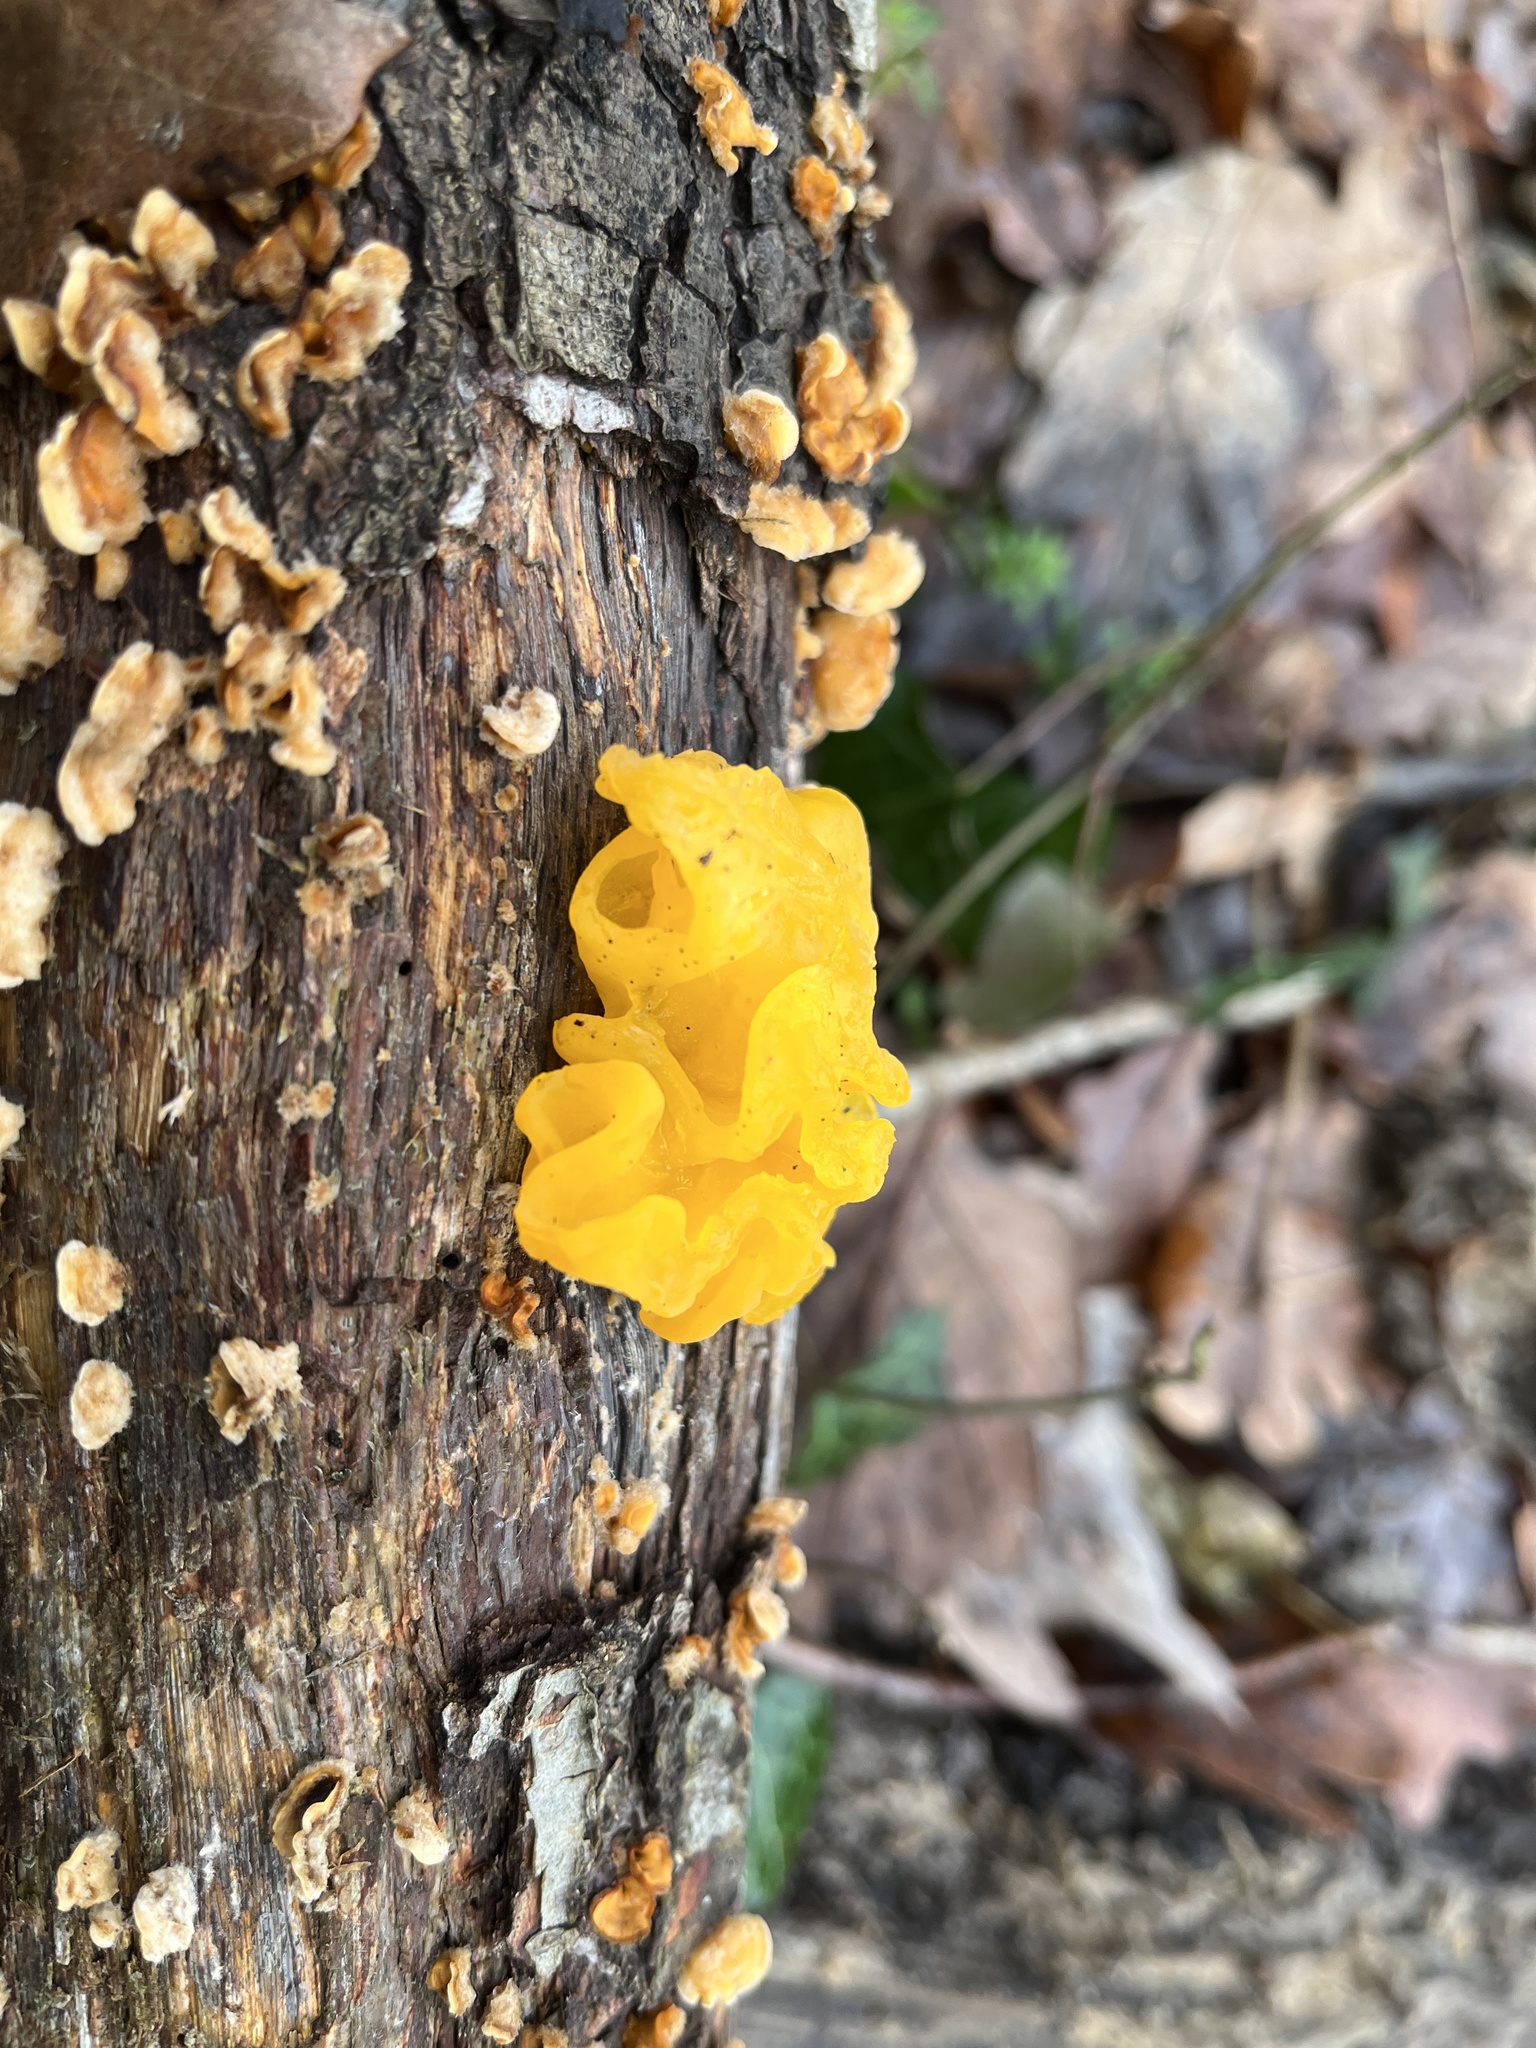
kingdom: Fungi
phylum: Basidiomycota
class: Tremellomycetes
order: Tremellales
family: Naemateliaceae
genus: Naematelia
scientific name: Naematelia aurantia
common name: Golden ear
